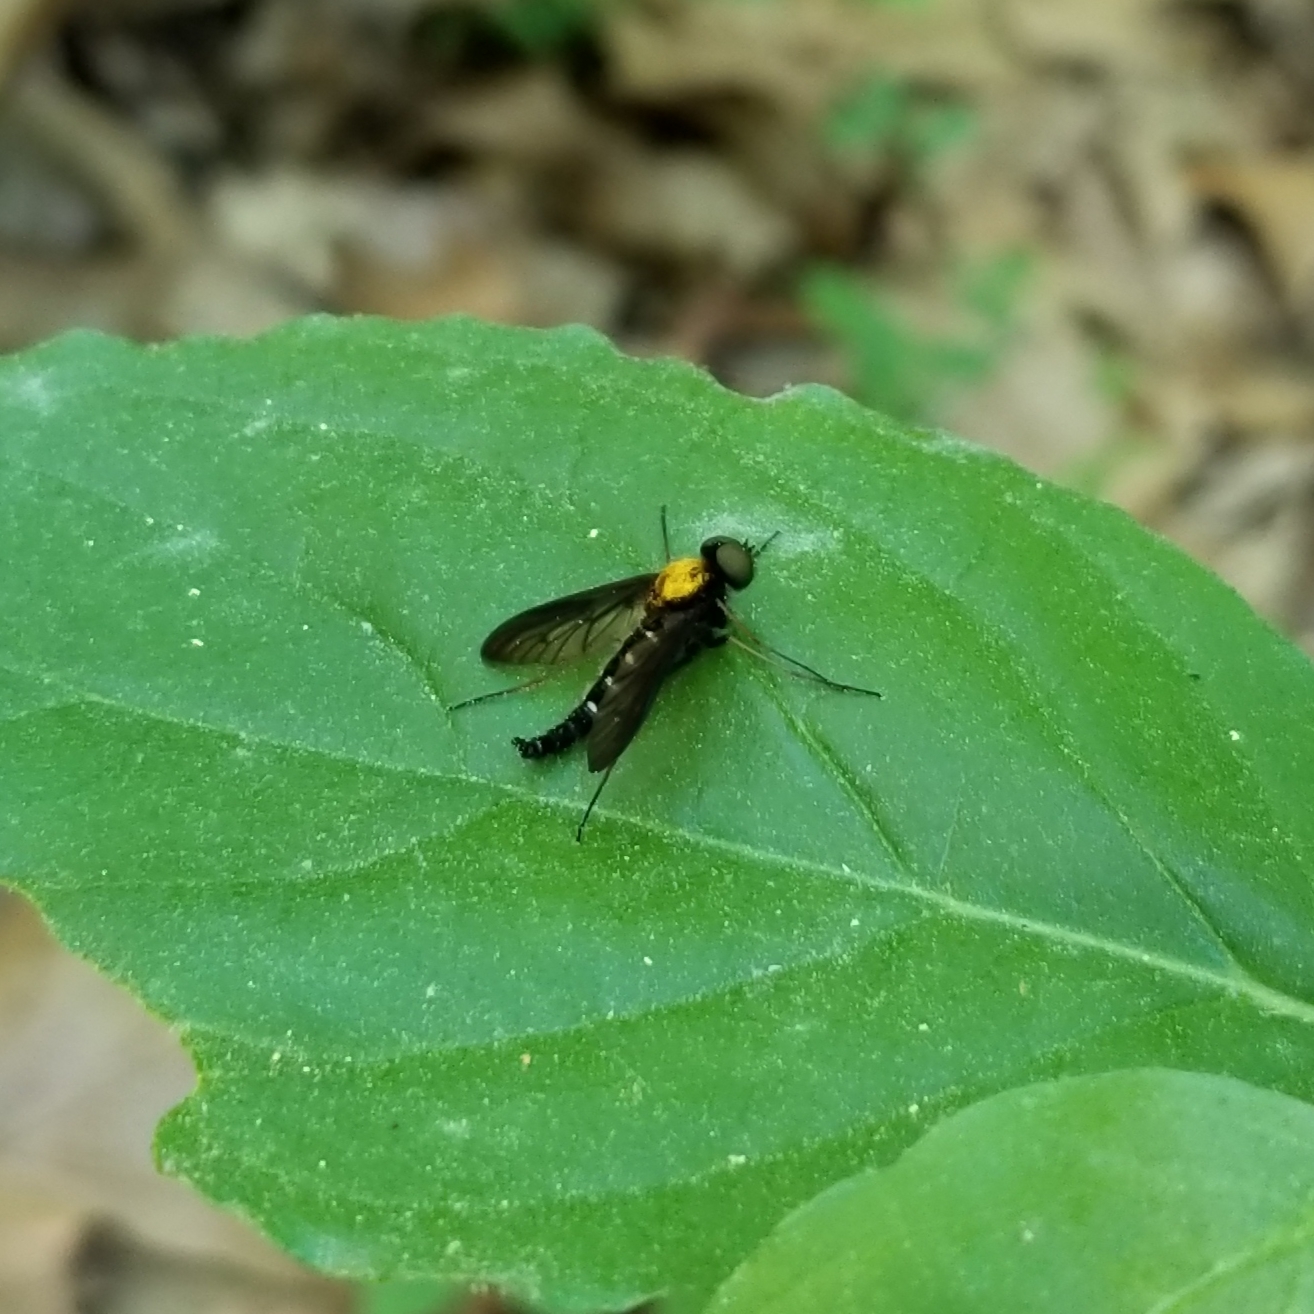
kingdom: Animalia
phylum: Arthropoda
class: Insecta
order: Diptera
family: Rhagionidae
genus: Chrysopilus
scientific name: Chrysopilus thoracicus
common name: Golden-backed snipe fly
